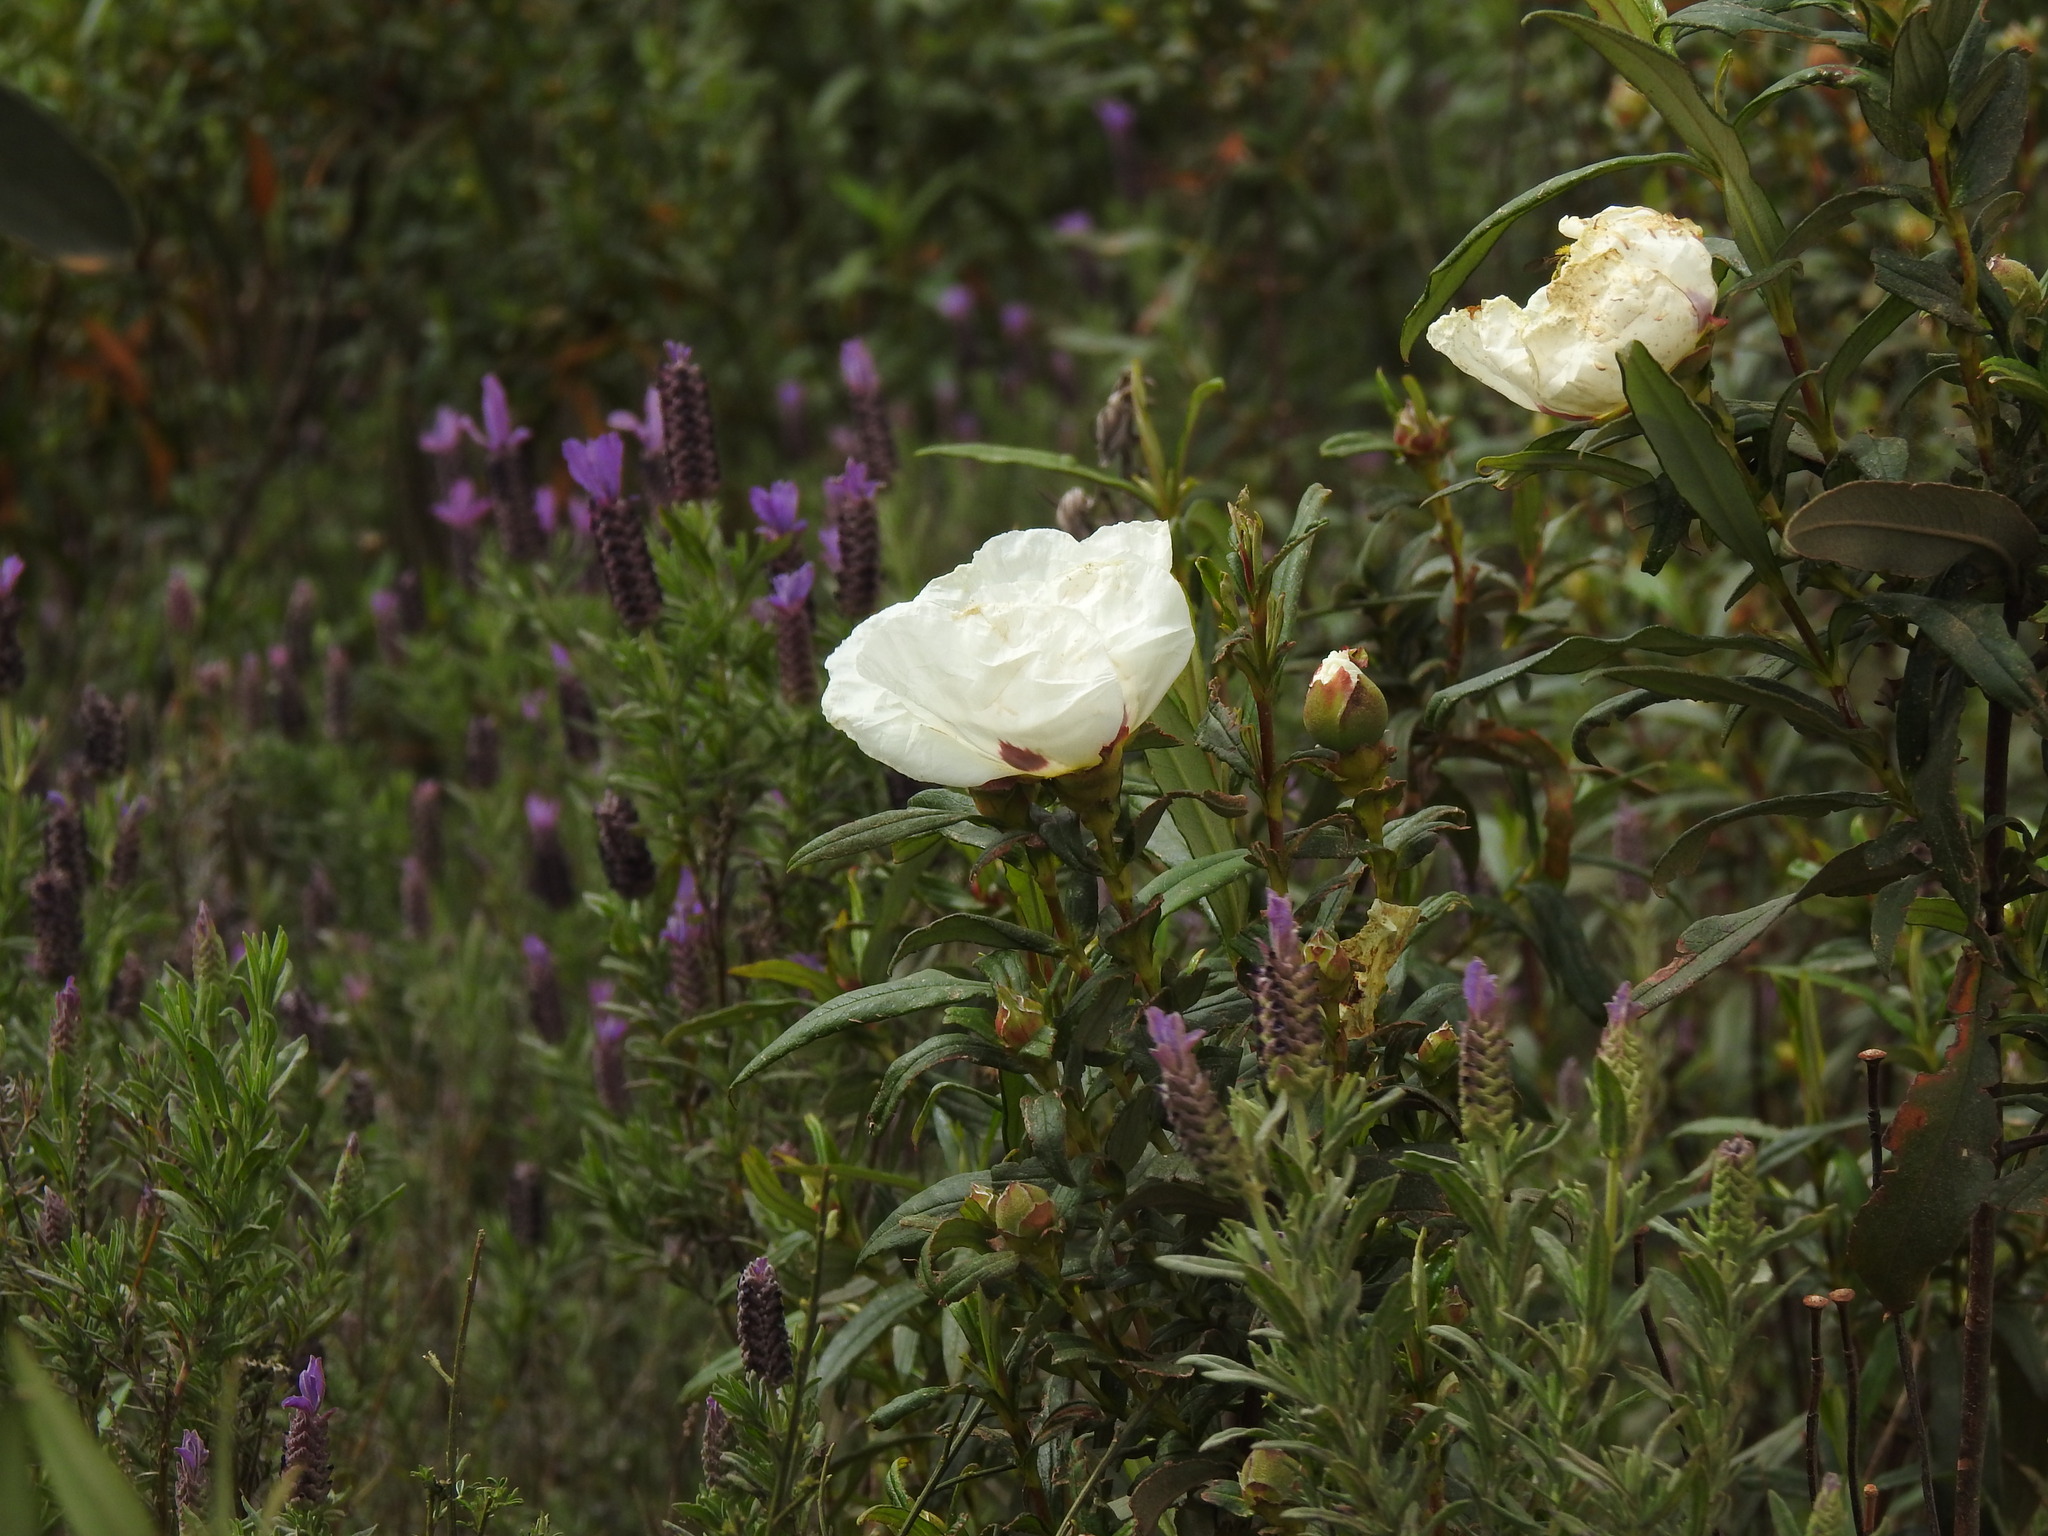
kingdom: Plantae
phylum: Tracheophyta
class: Magnoliopsida
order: Malvales
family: Cistaceae
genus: Cistus
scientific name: Cistus ladanifer
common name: Common gum cistus
